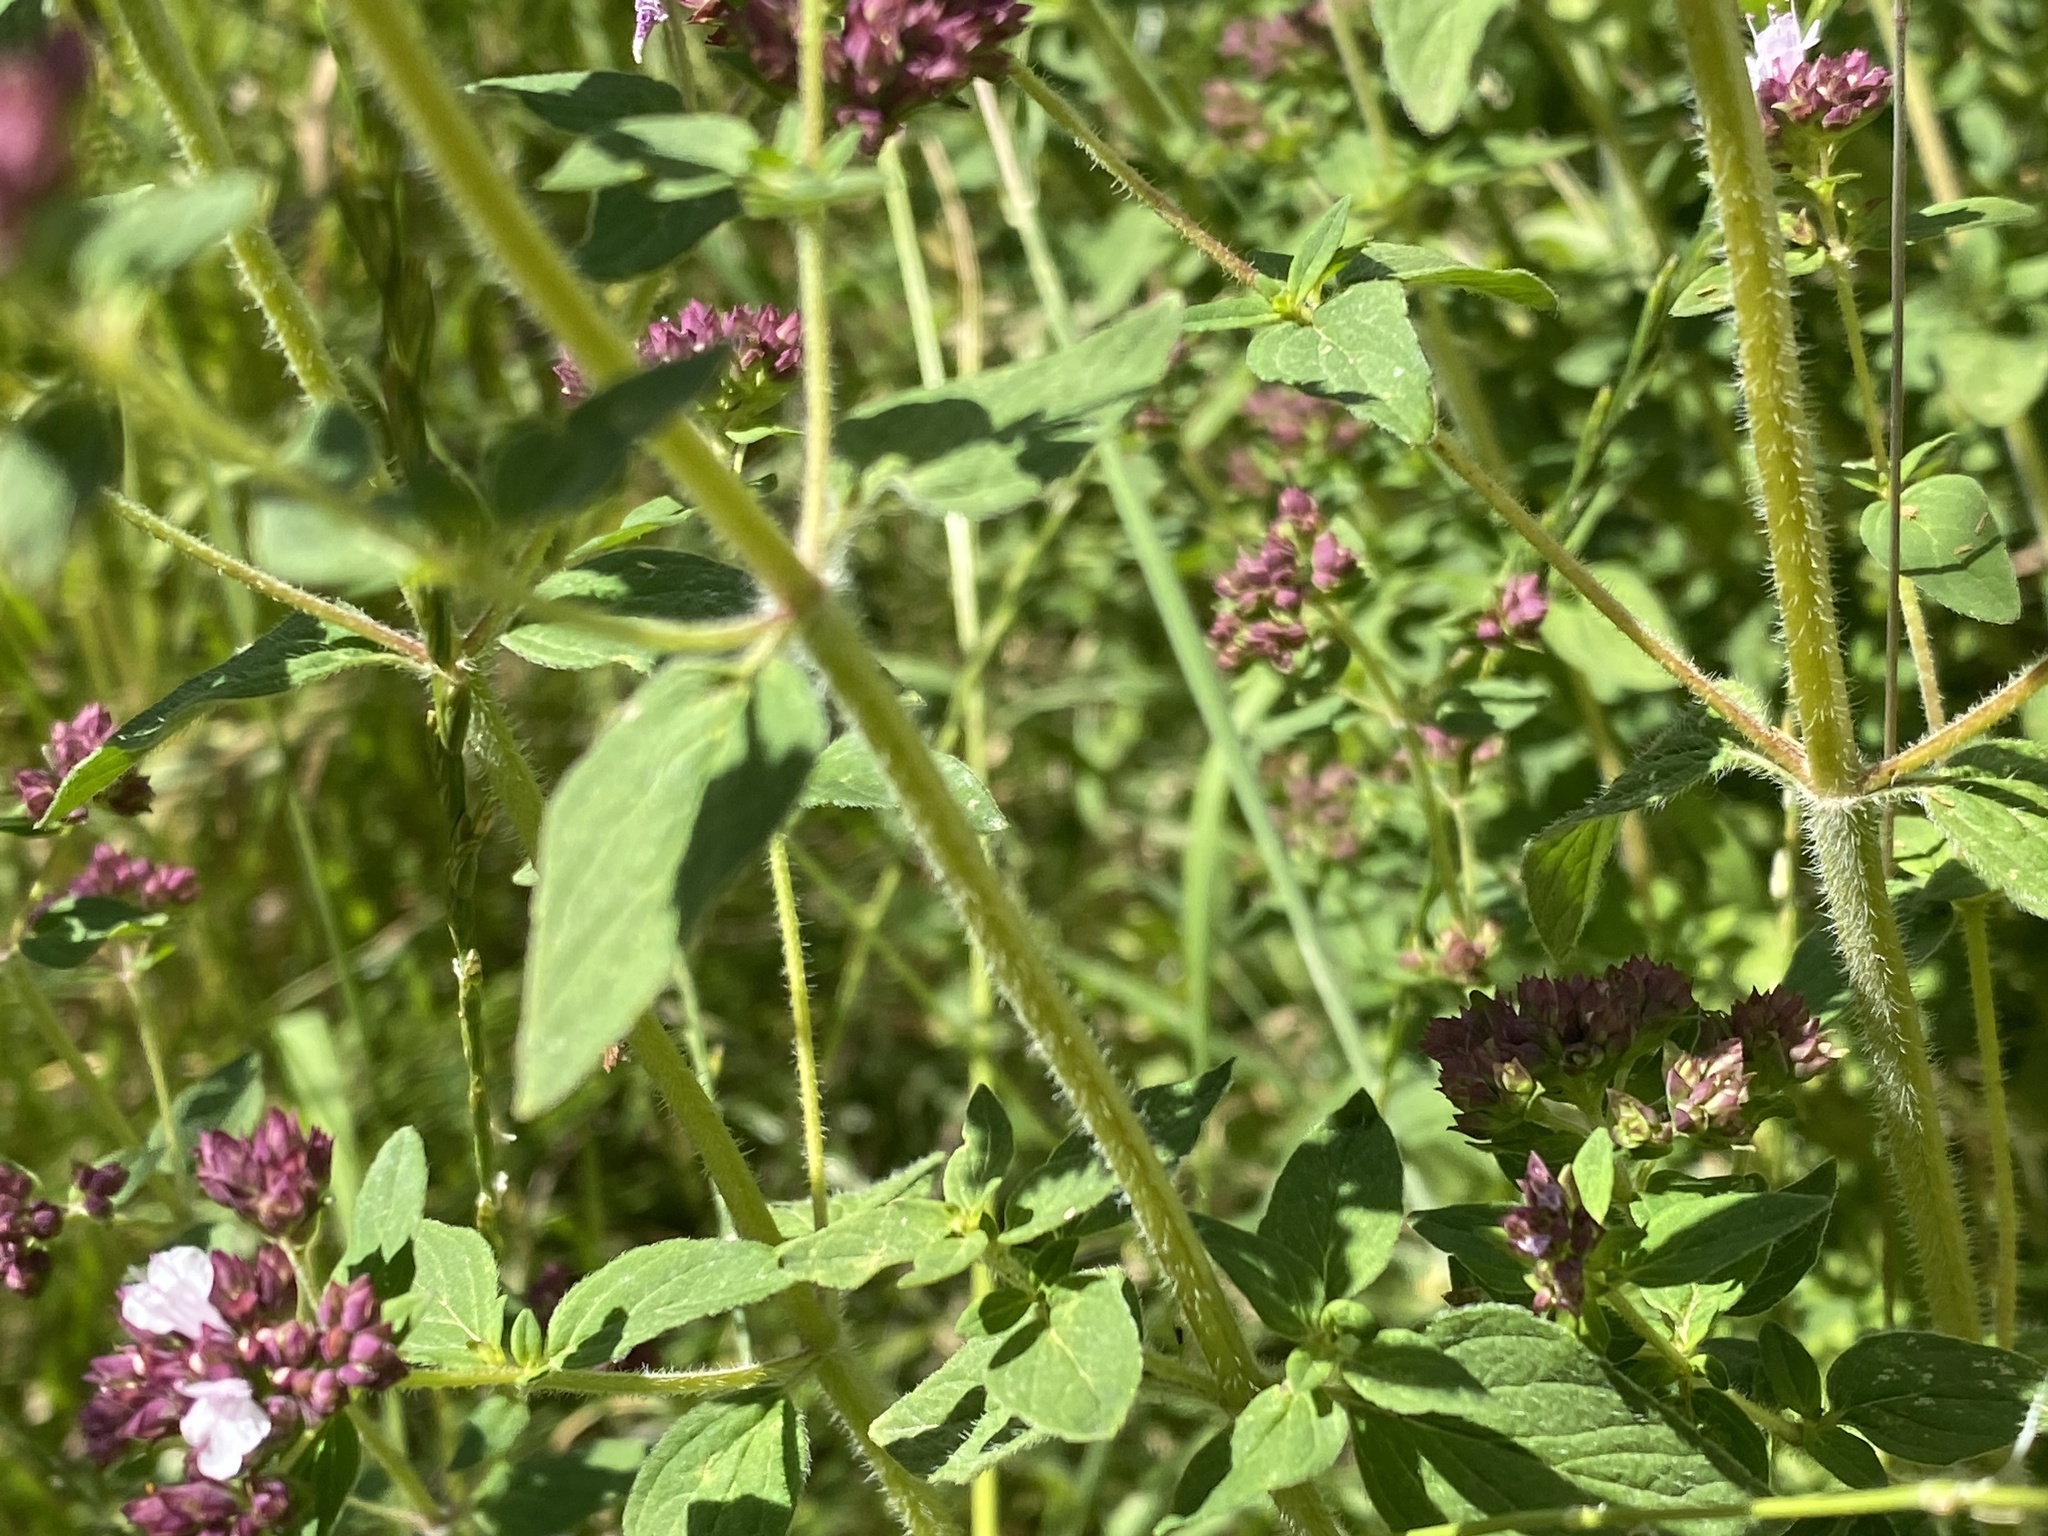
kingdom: Plantae
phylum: Tracheophyta
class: Magnoliopsida
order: Lamiales
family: Lamiaceae
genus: Origanum
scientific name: Origanum vulgare
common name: Wild marjoram
